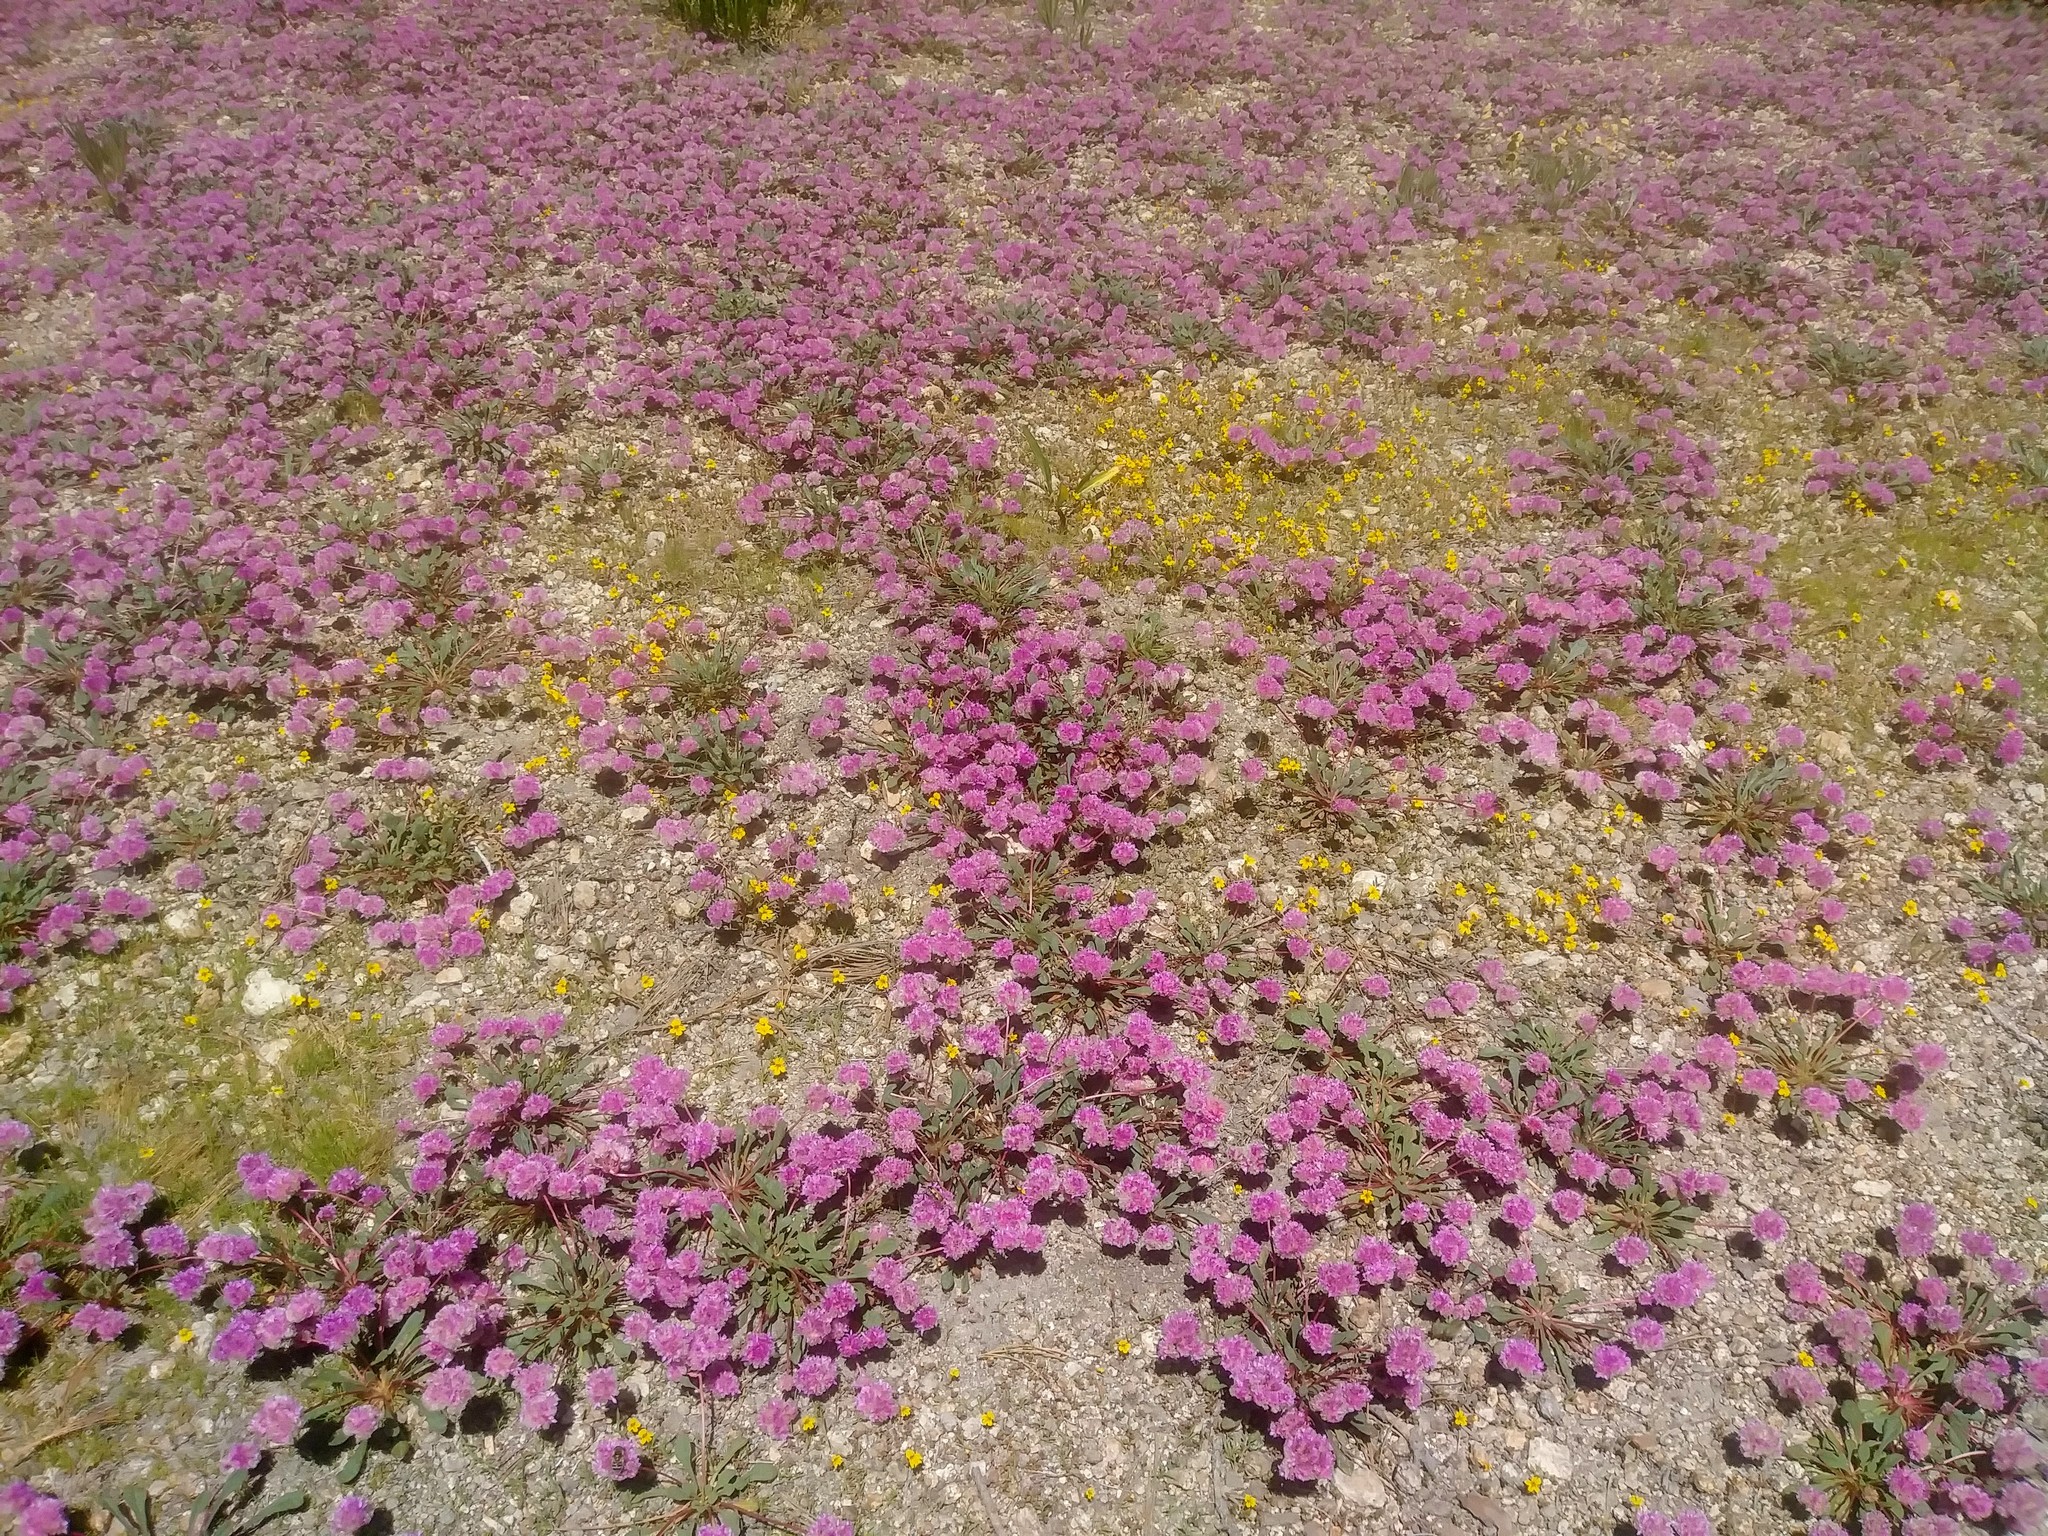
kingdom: Plantae
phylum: Tracheophyta
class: Magnoliopsida
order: Caryophyllales
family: Montiaceae
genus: Calyptridium
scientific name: Calyptridium monospermum
